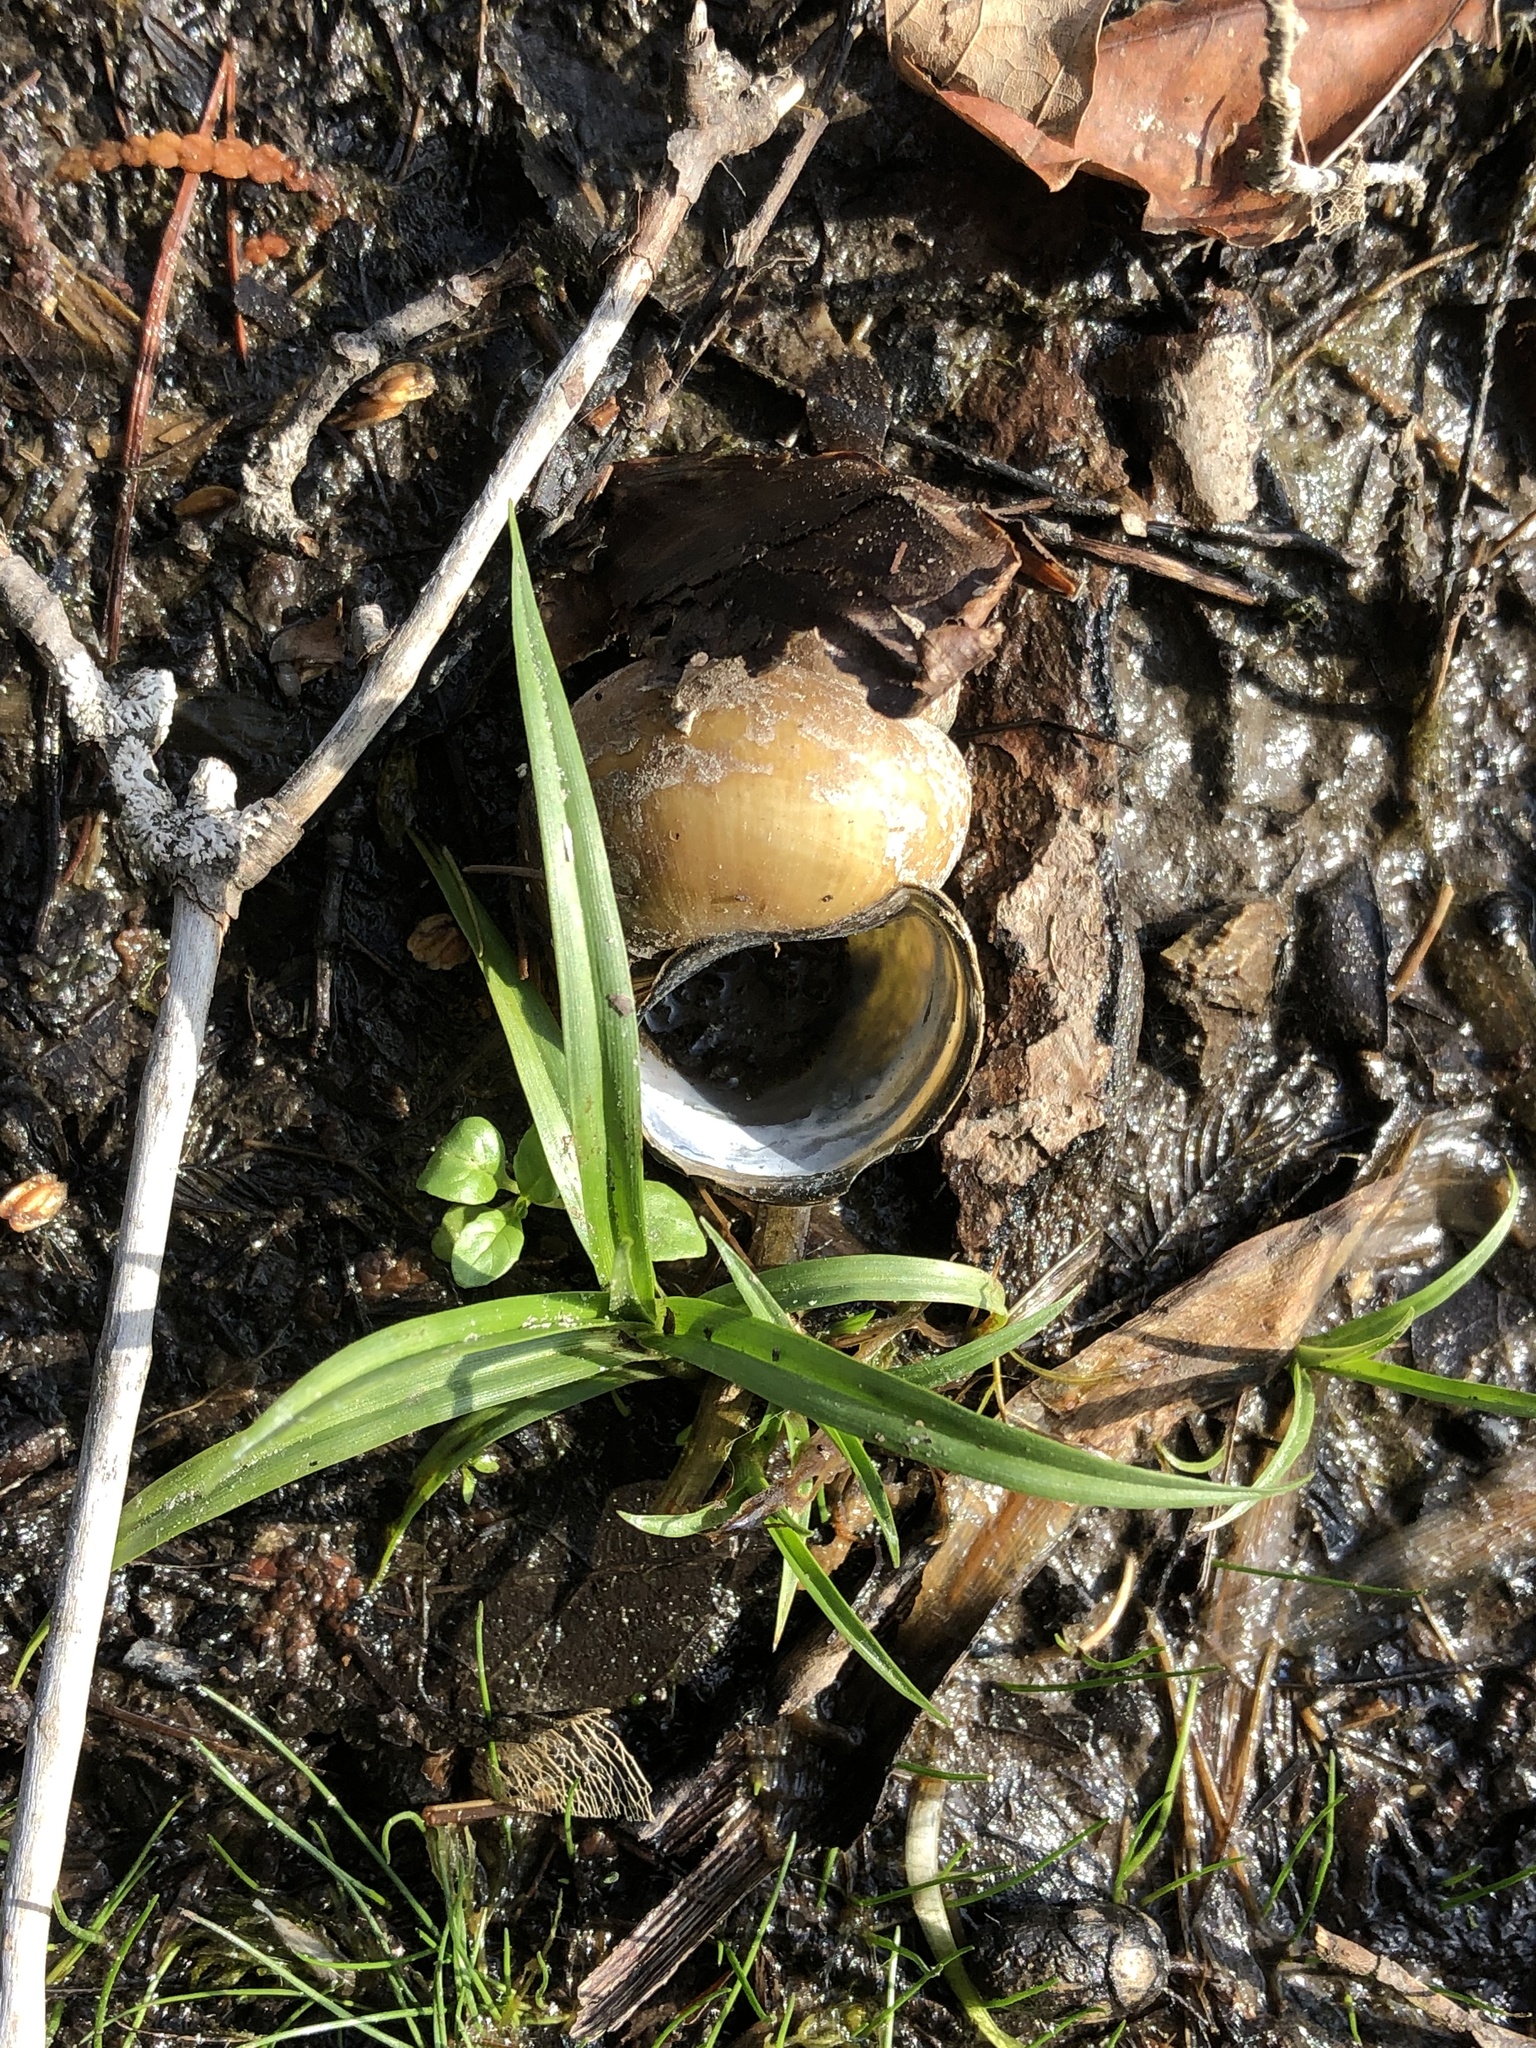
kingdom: Animalia
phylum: Mollusca
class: Gastropoda
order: Architaenioglossa
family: Viviparidae
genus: Cipangopaludina
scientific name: Cipangopaludina chinensis
